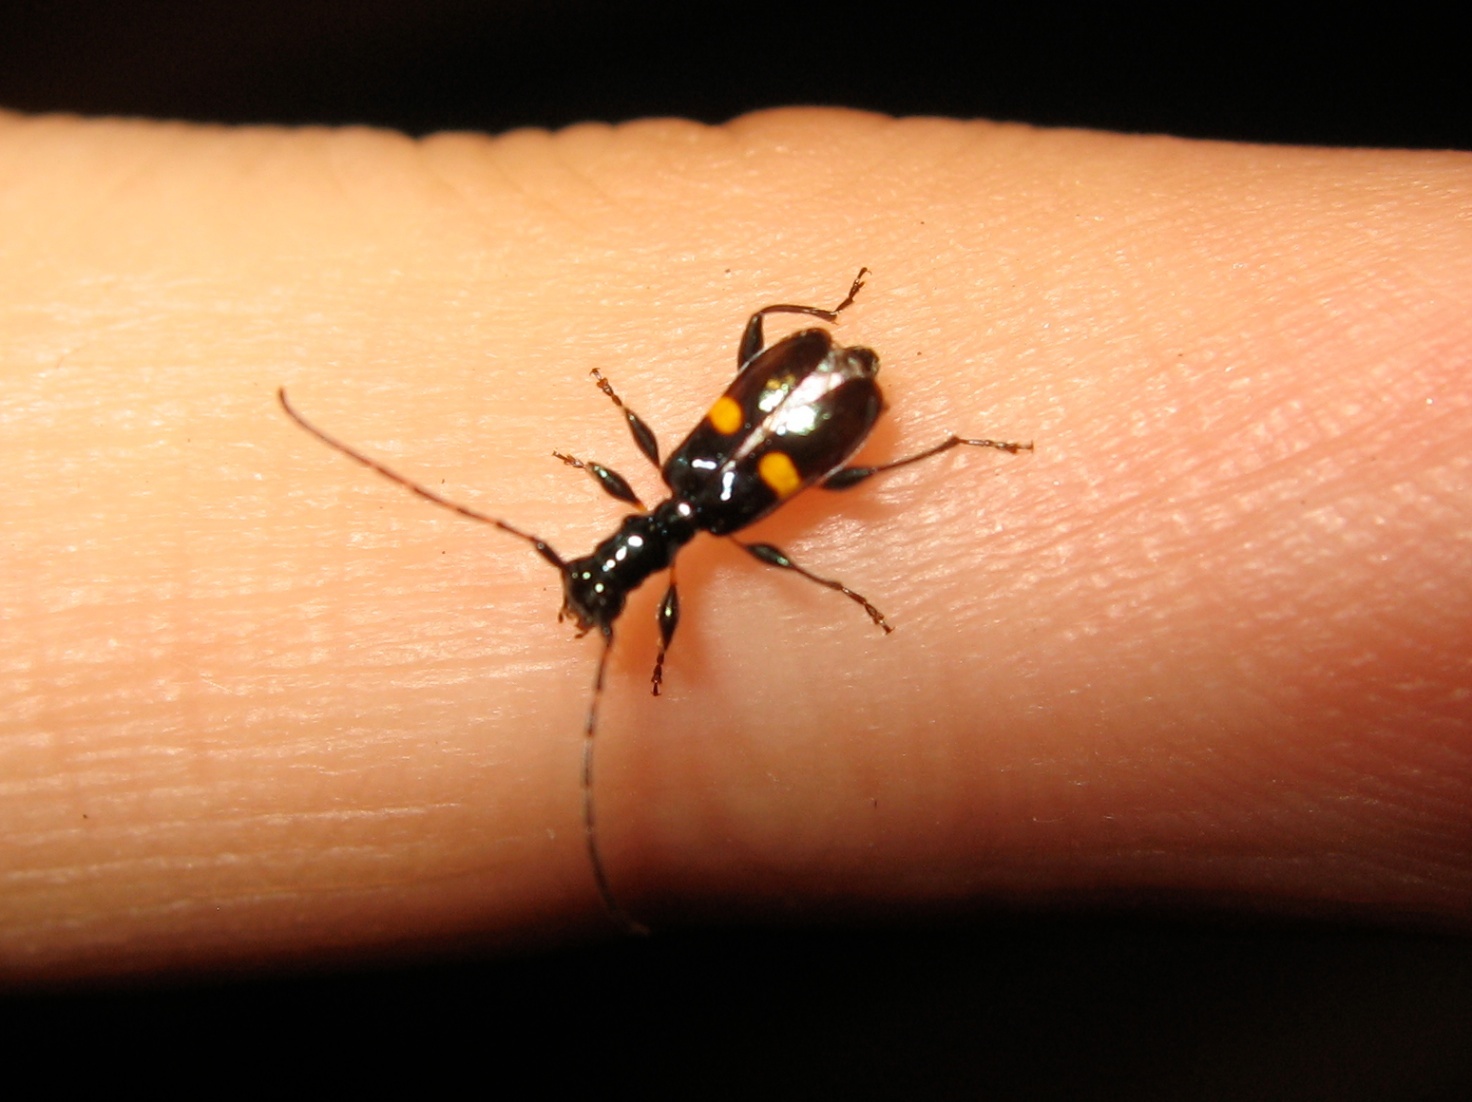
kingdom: Animalia
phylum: Arthropoda
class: Insecta
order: Coleoptera
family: Cerambycidae
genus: Zorion
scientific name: Zorion guttigerum
